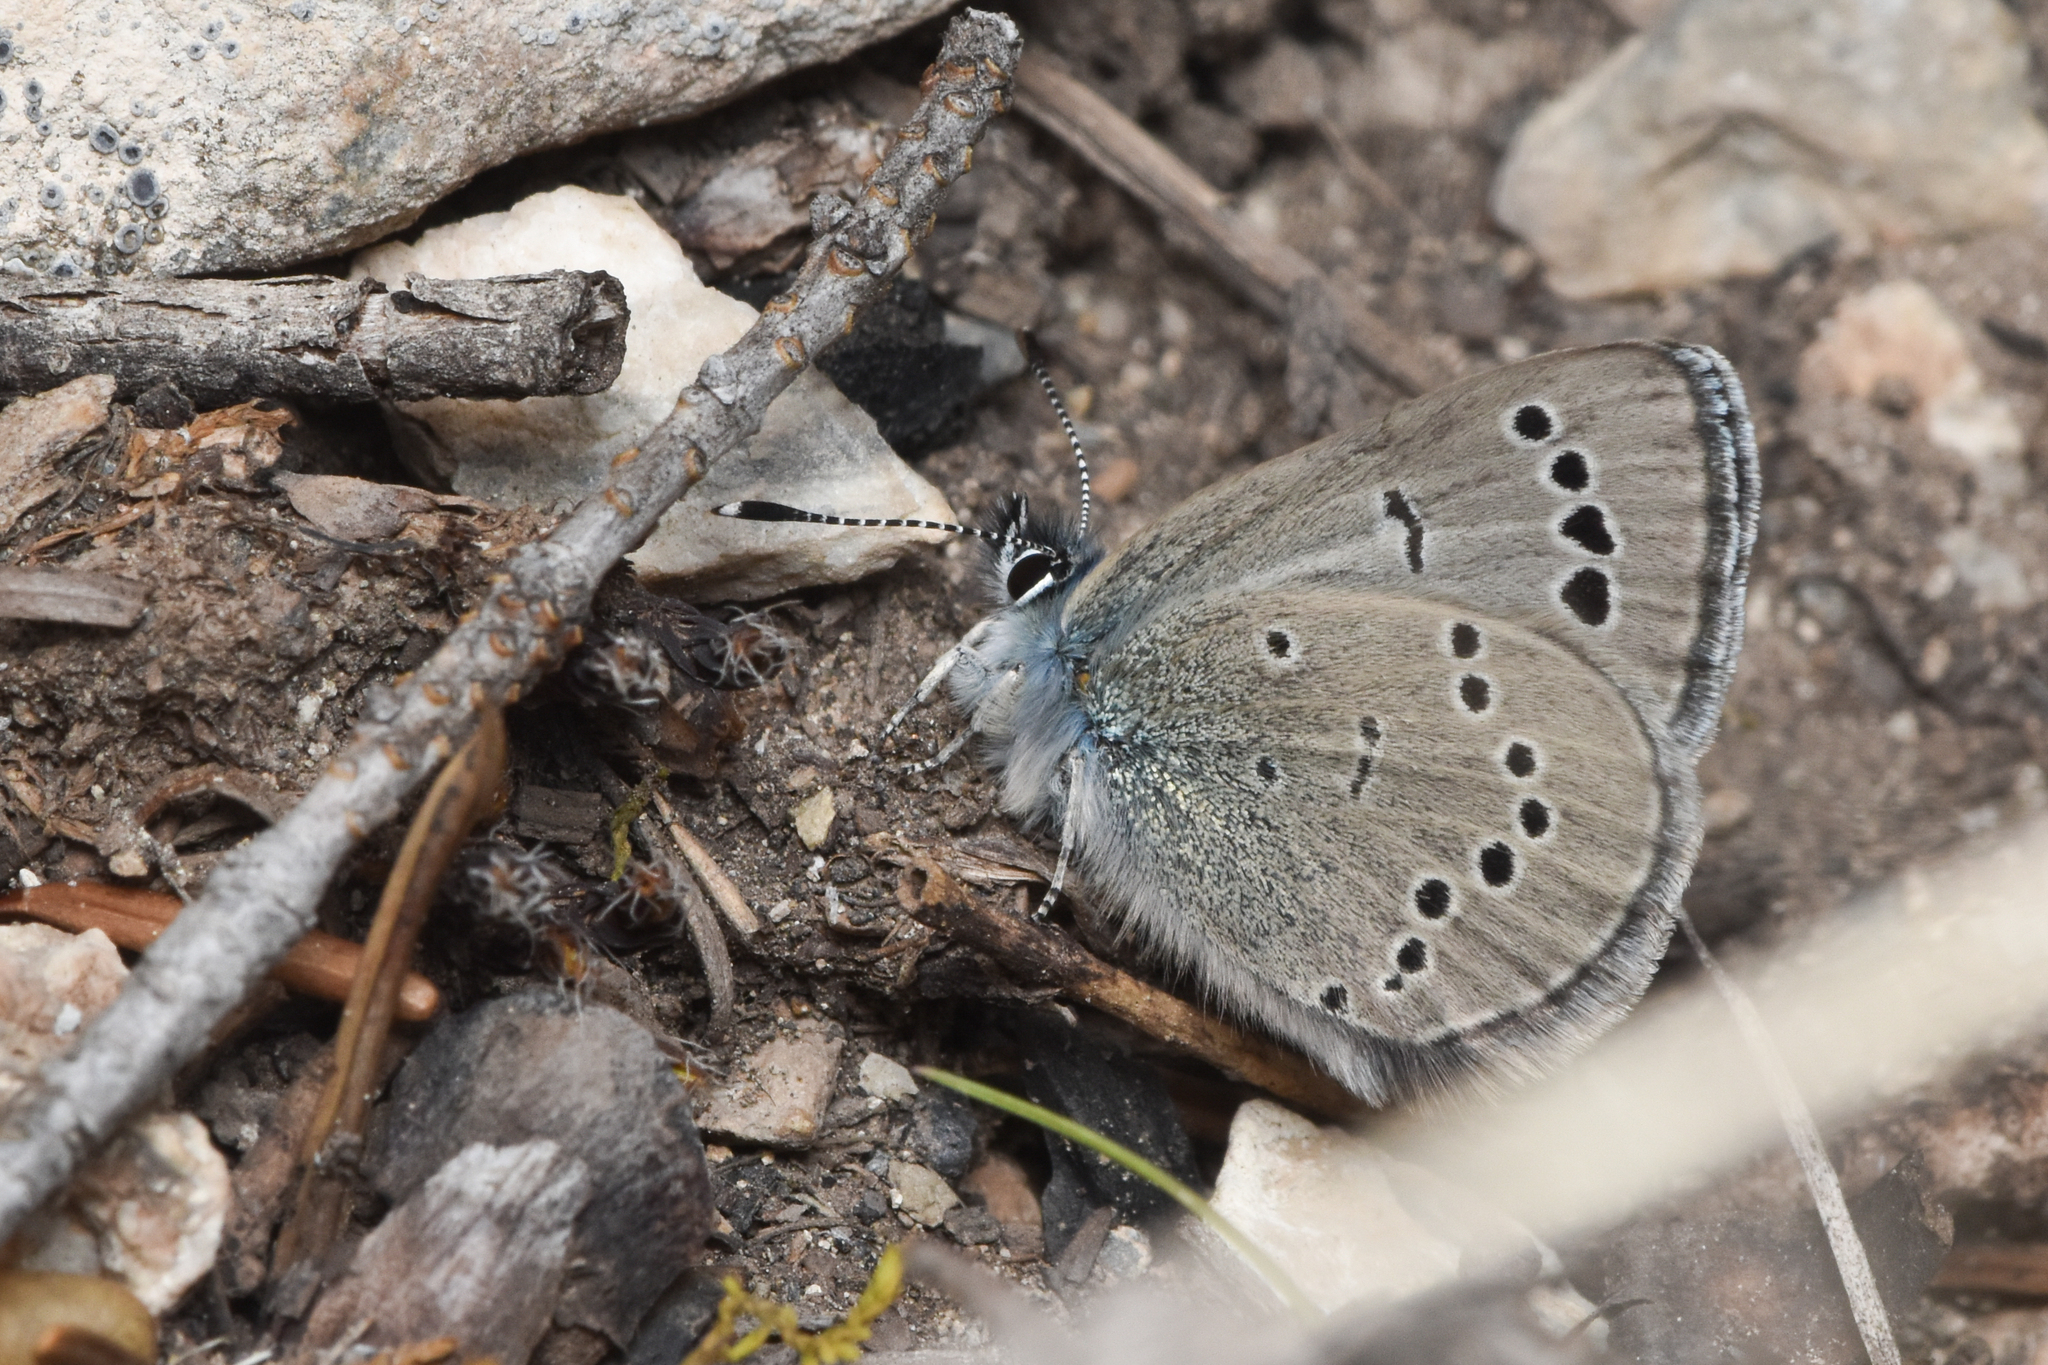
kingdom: Animalia
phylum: Arthropoda
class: Insecta
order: Lepidoptera
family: Lycaenidae
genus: Glaucopsyche
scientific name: Glaucopsyche lygdamus
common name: Silvery blue
